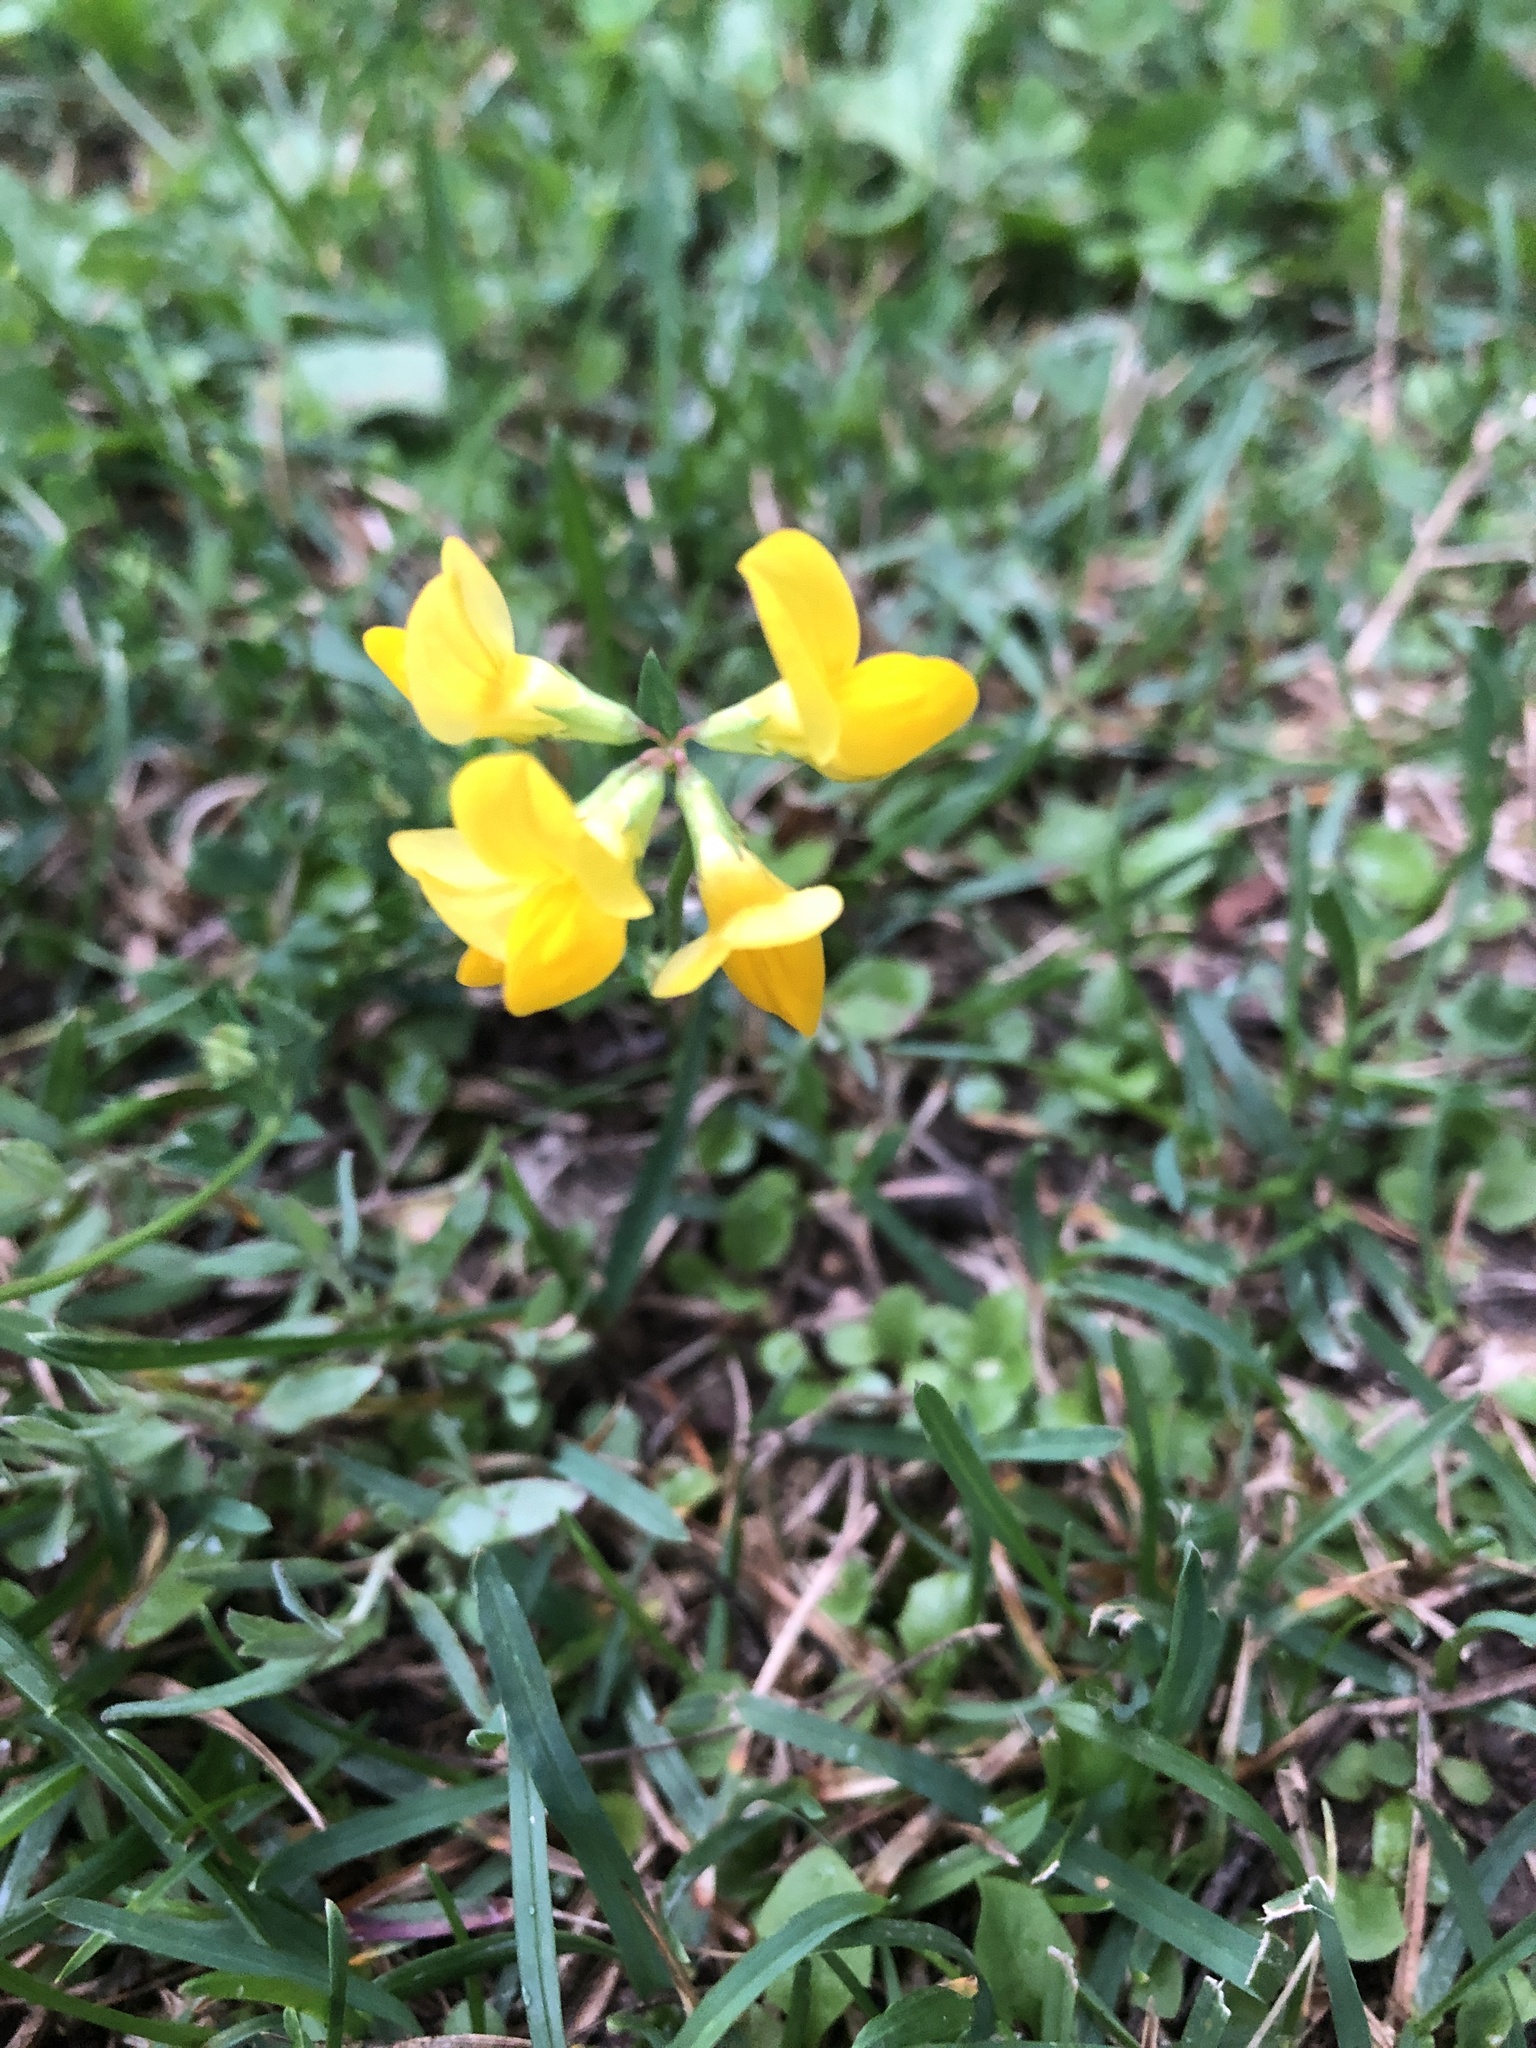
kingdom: Plantae
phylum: Tracheophyta
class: Magnoliopsida
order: Fabales
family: Fabaceae
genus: Lotus
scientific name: Lotus corniculatus
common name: Common bird's-foot-trefoil
